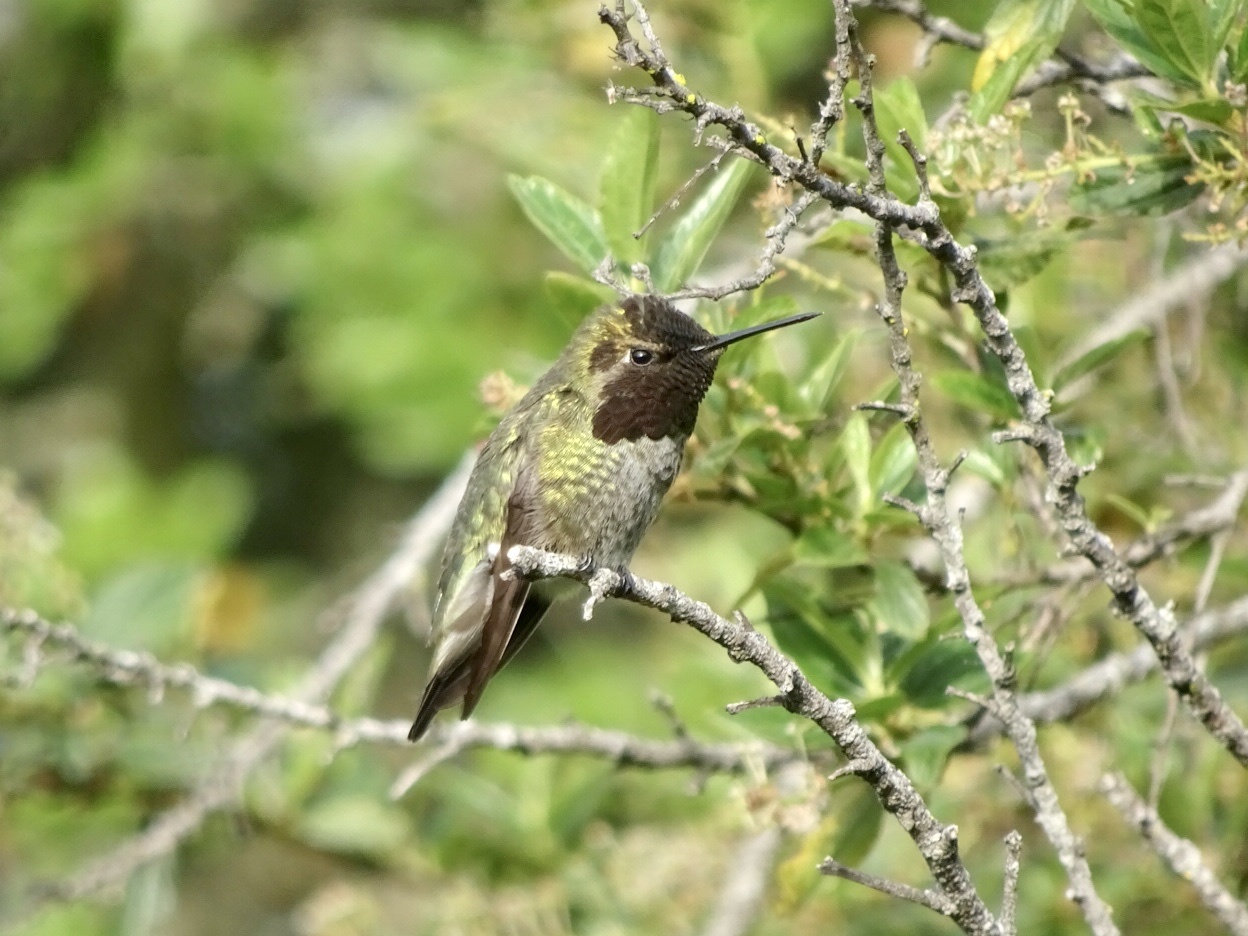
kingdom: Animalia
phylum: Chordata
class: Aves
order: Apodiformes
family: Trochilidae
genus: Calypte
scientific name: Calypte anna
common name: Anna's hummingbird
